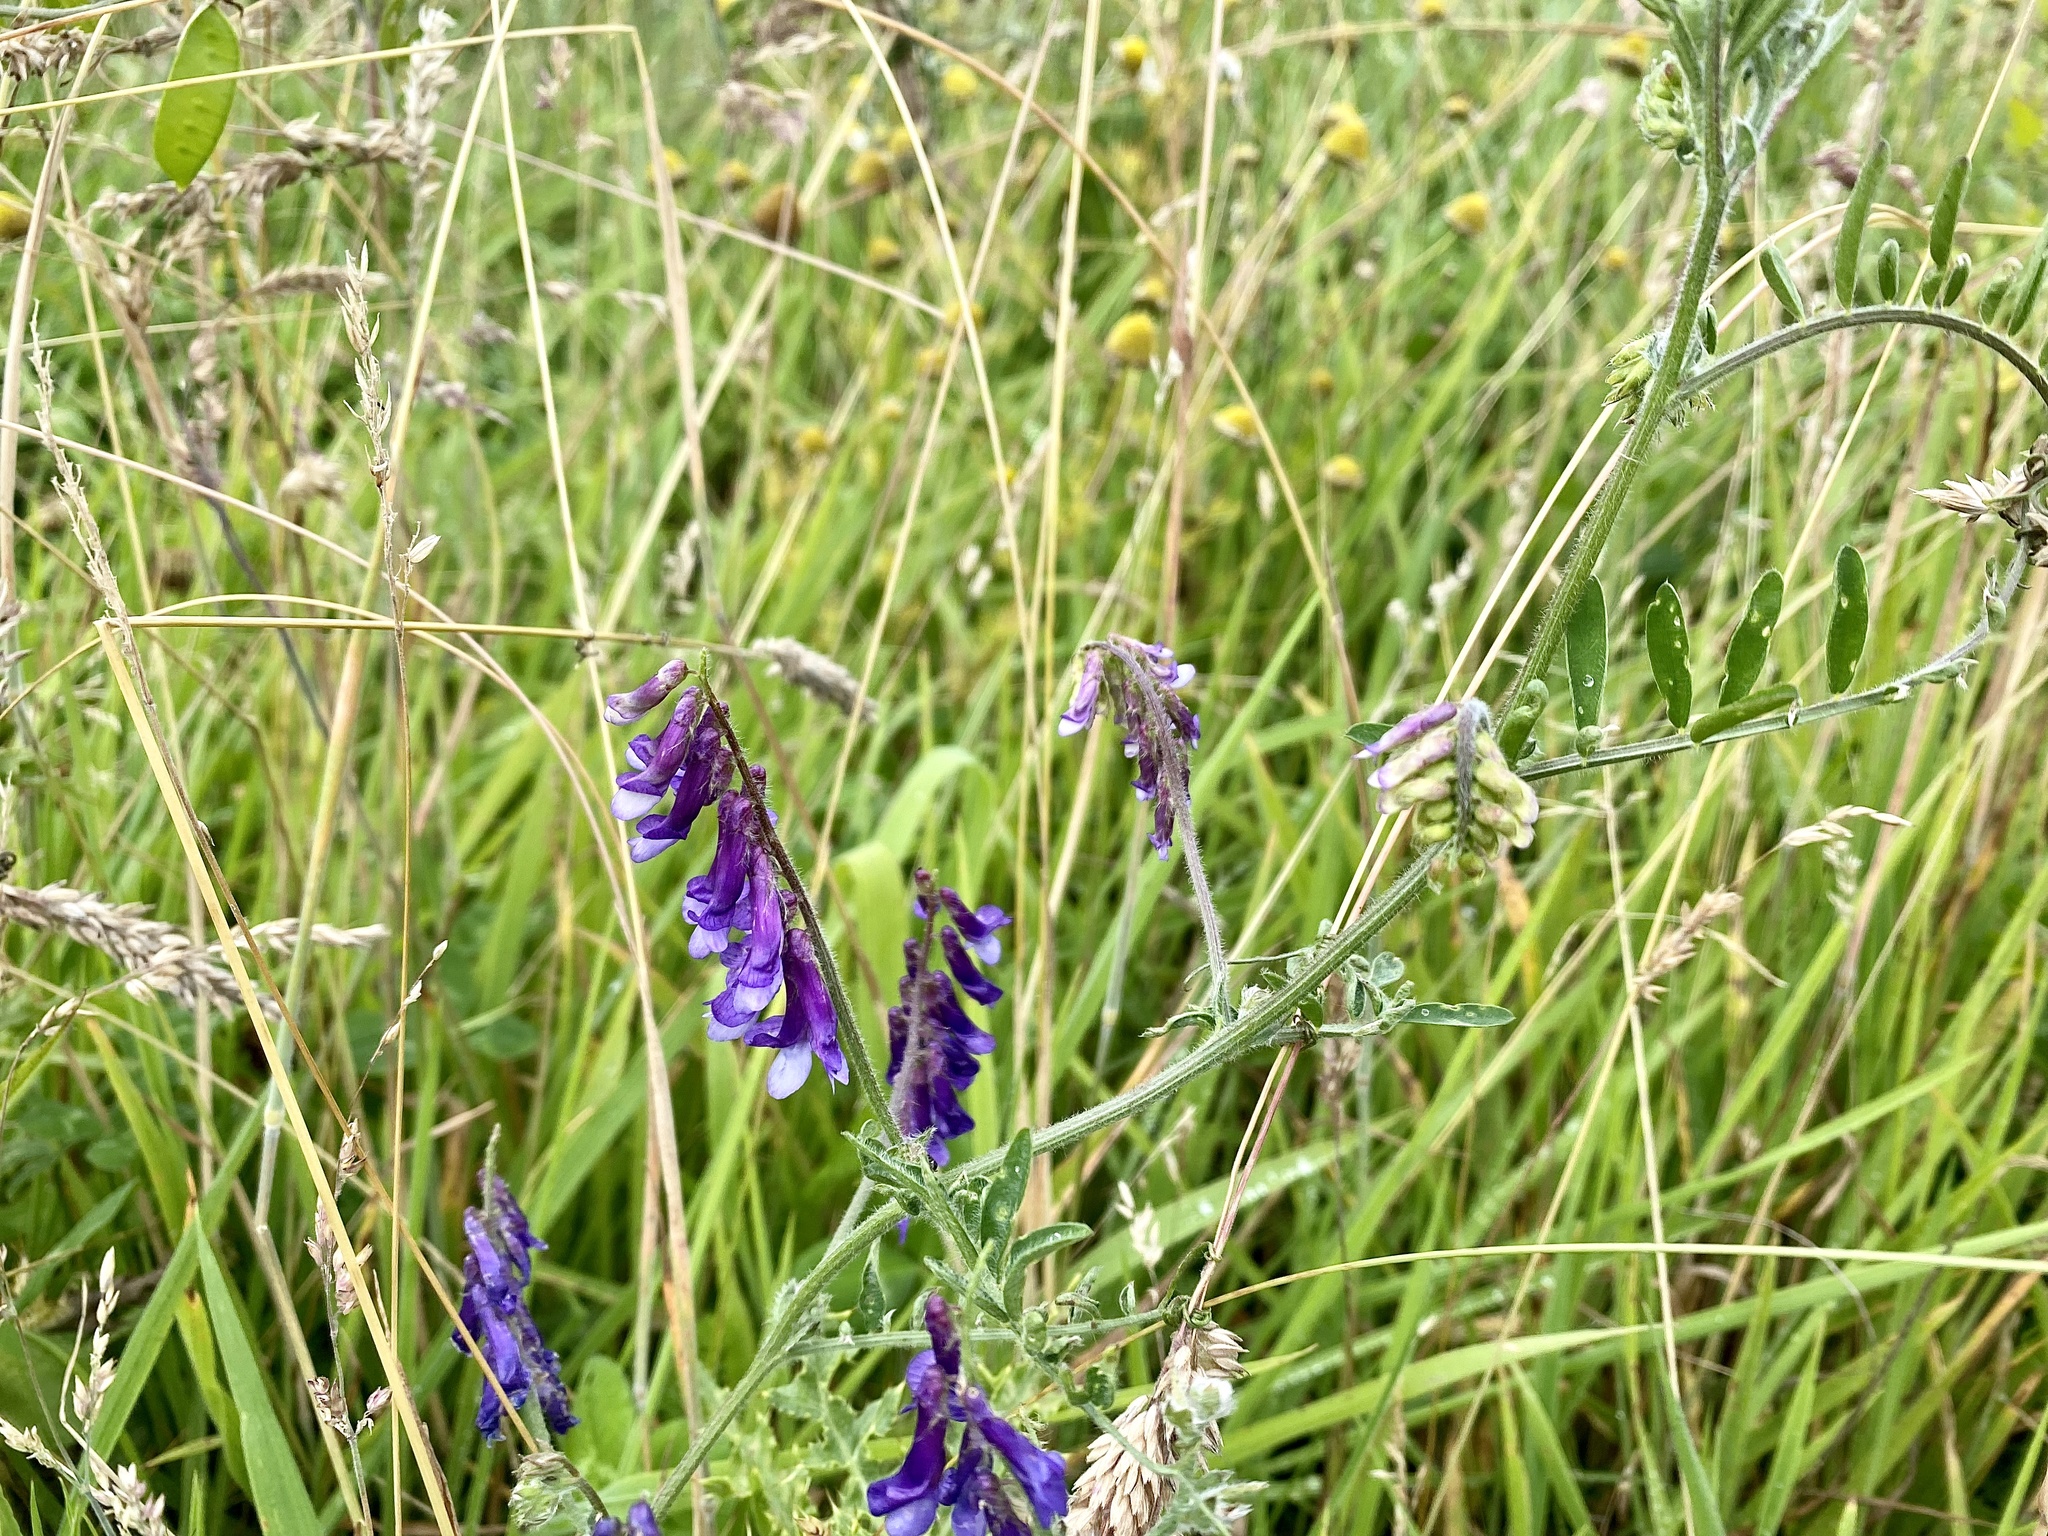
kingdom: Plantae
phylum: Tracheophyta
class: Magnoliopsida
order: Fabales
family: Fabaceae
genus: Vicia
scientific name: Vicia villosa
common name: Fodder vetch
